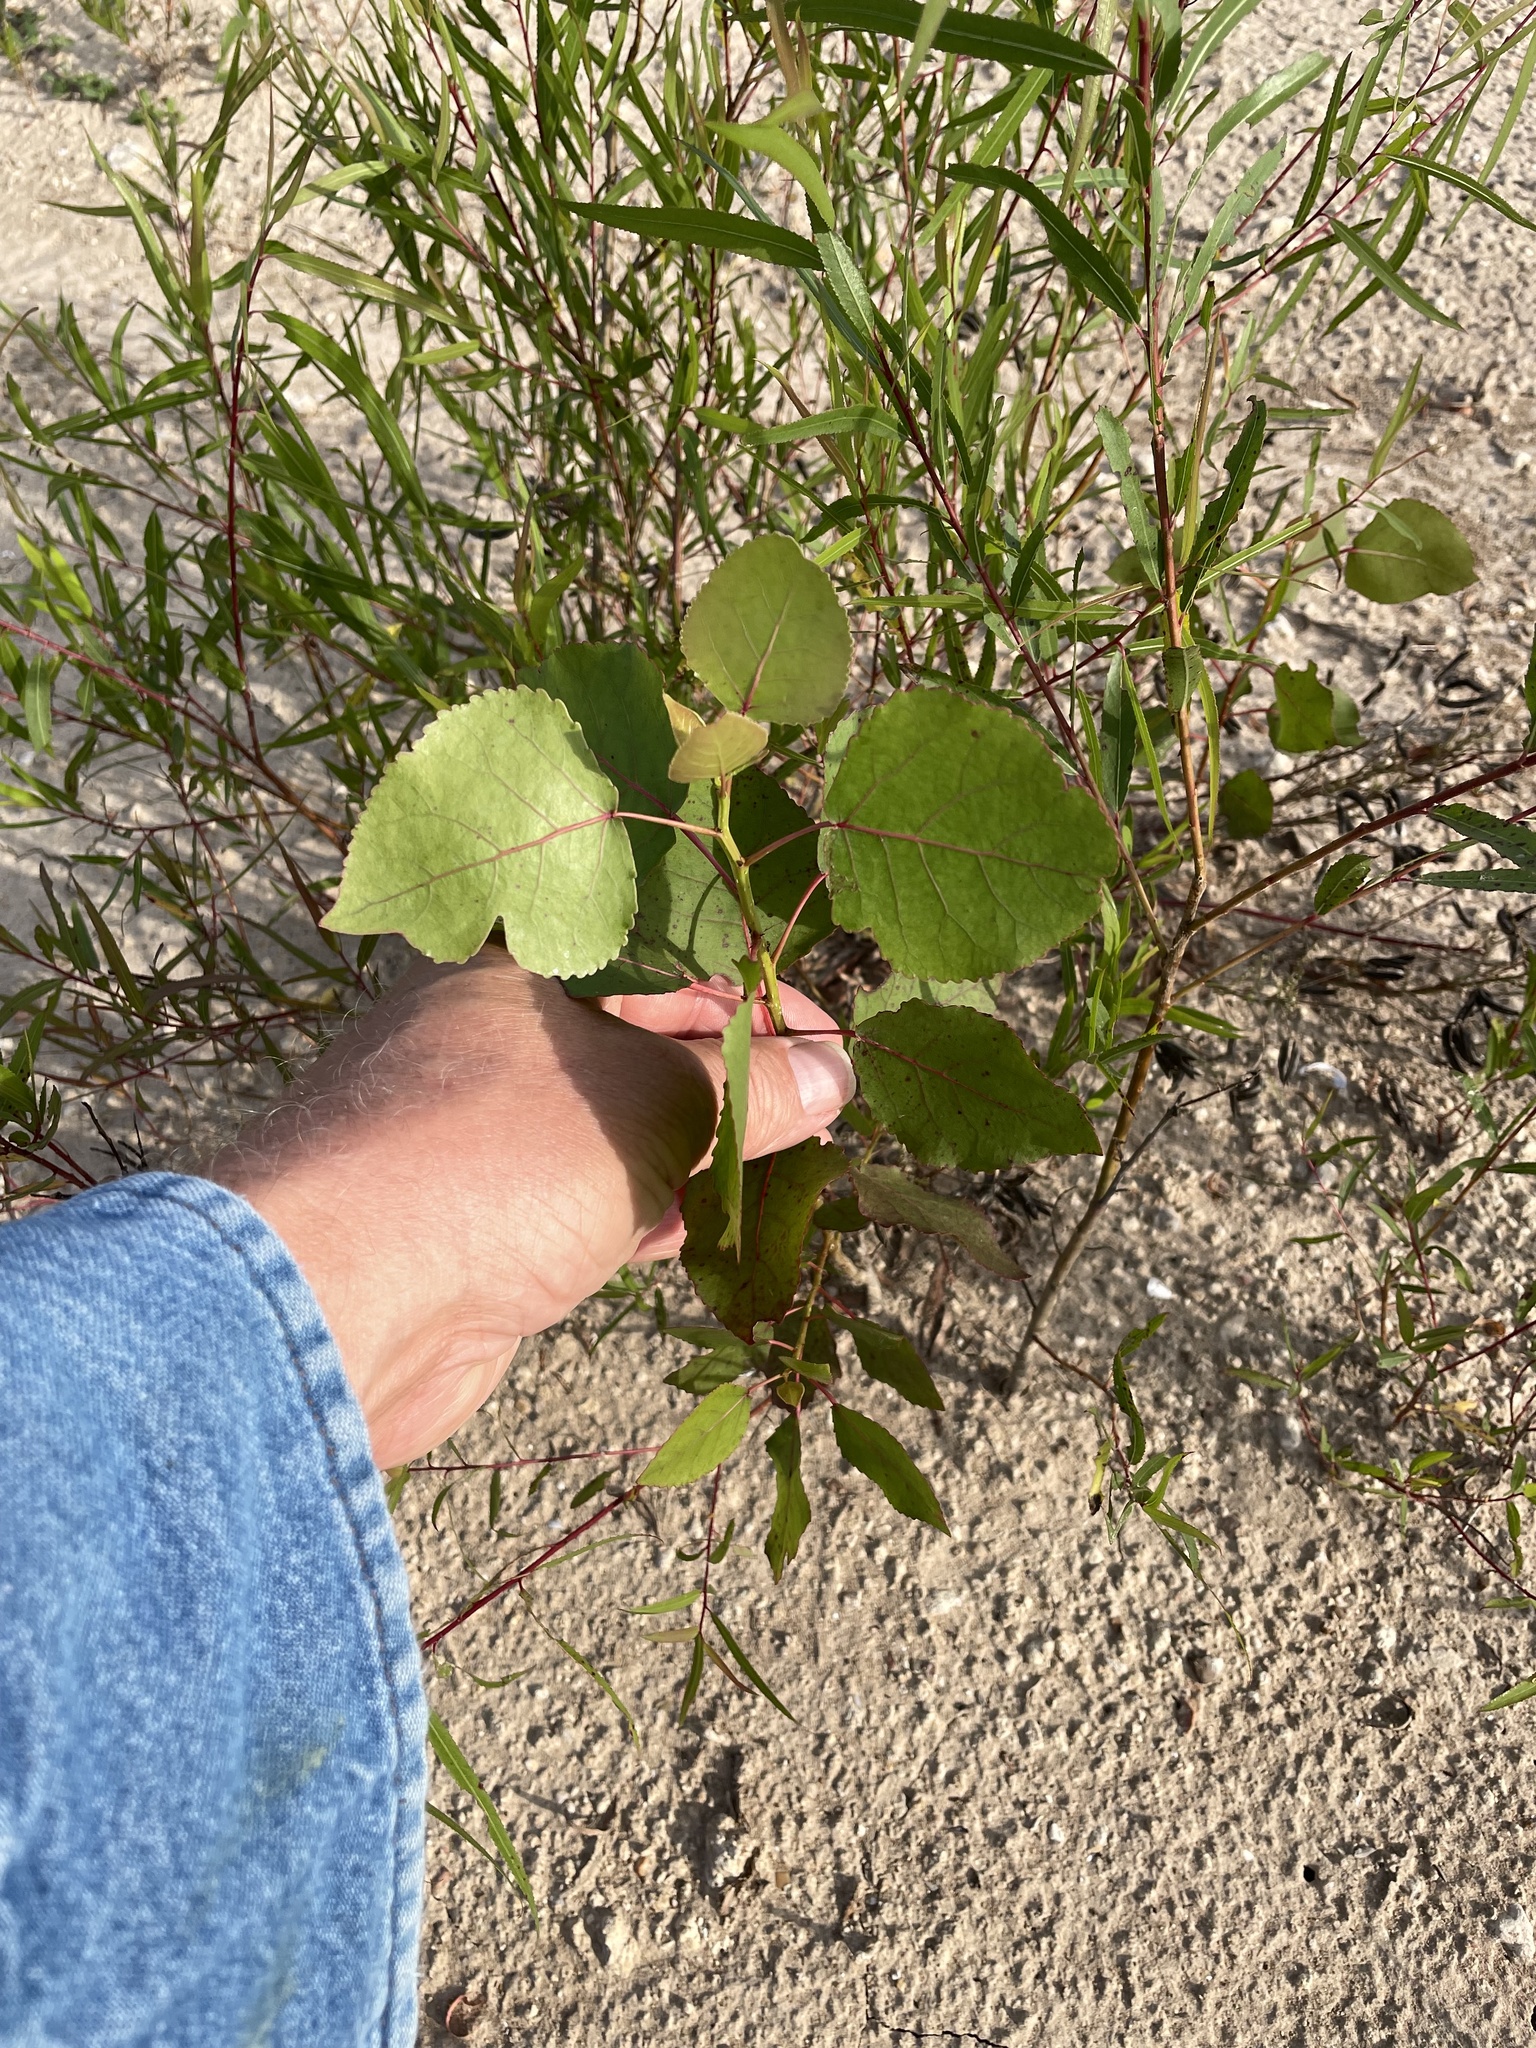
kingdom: Plantae
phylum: Tracheophyta
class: Magnoliopsida
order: Malpighiales
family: Salicaceae
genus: Populus
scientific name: Populus deltoides
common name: Eastern cottonwood
